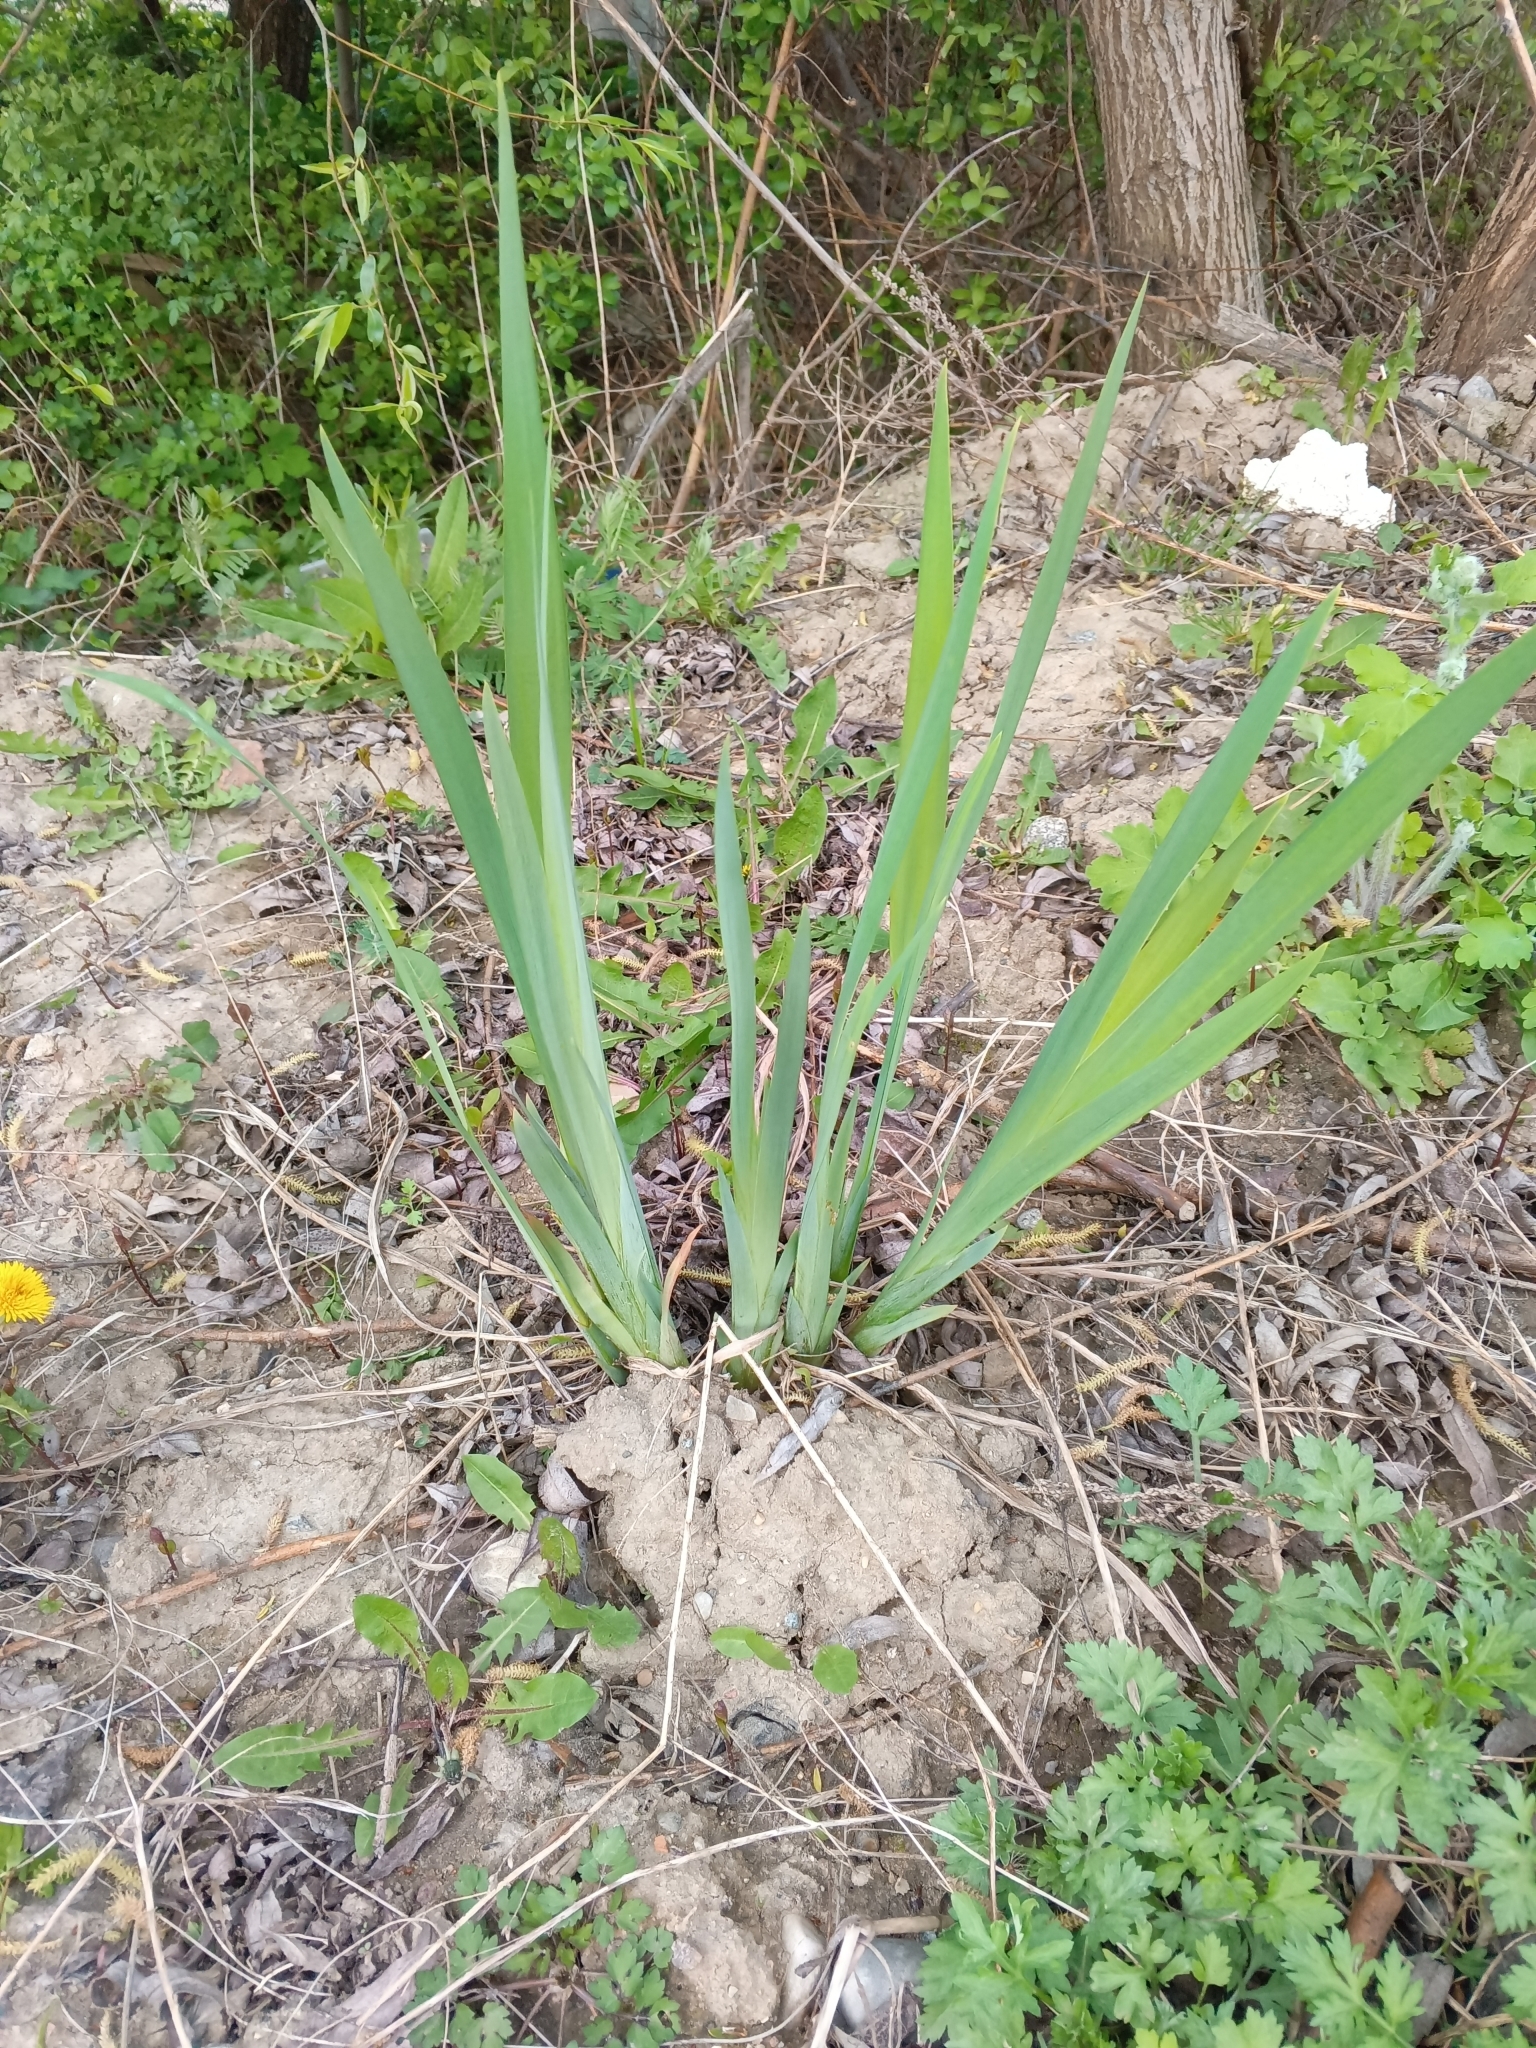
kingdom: Plantae
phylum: Tracheophyta
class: Liliopsida
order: Asparagales
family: Iridaceae
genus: Iris
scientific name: Iris pseudacorus
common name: Yellow flag
